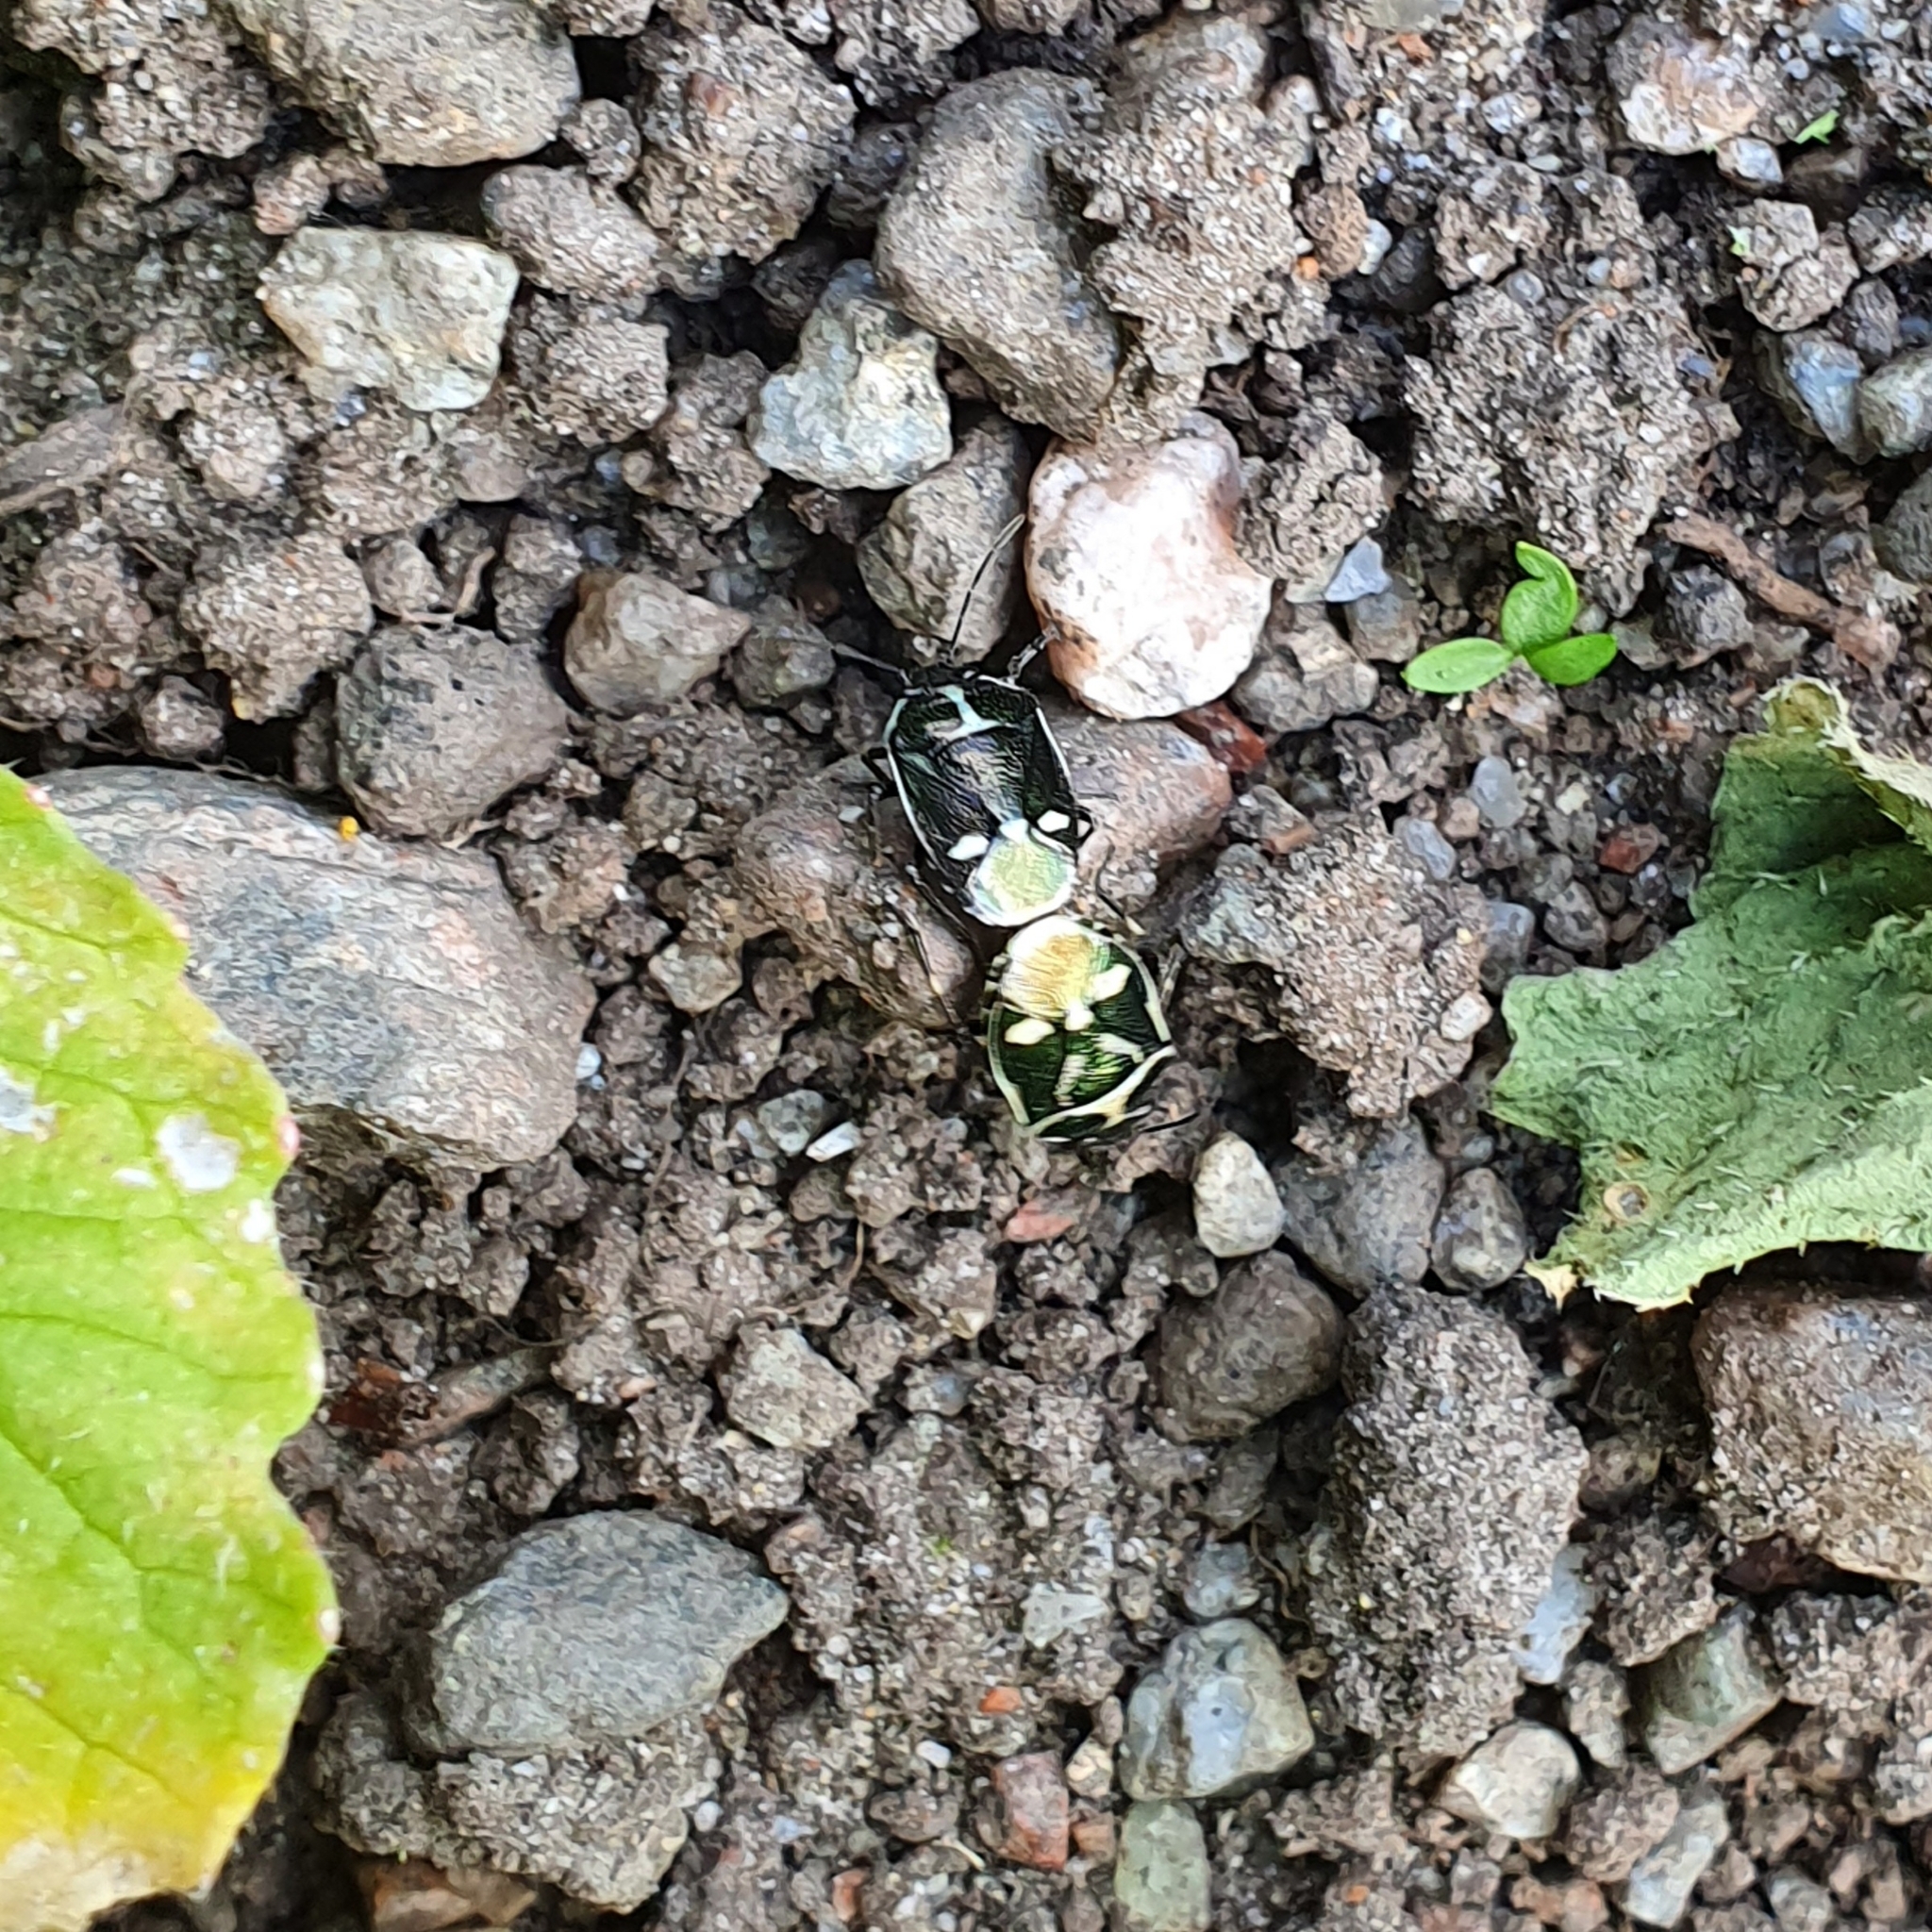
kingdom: Animalia
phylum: Arthropoda
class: Insecta
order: Hemiptera
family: Pentatomidae
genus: Eurydema
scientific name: Eurydema oleracea
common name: Cabbage bug
